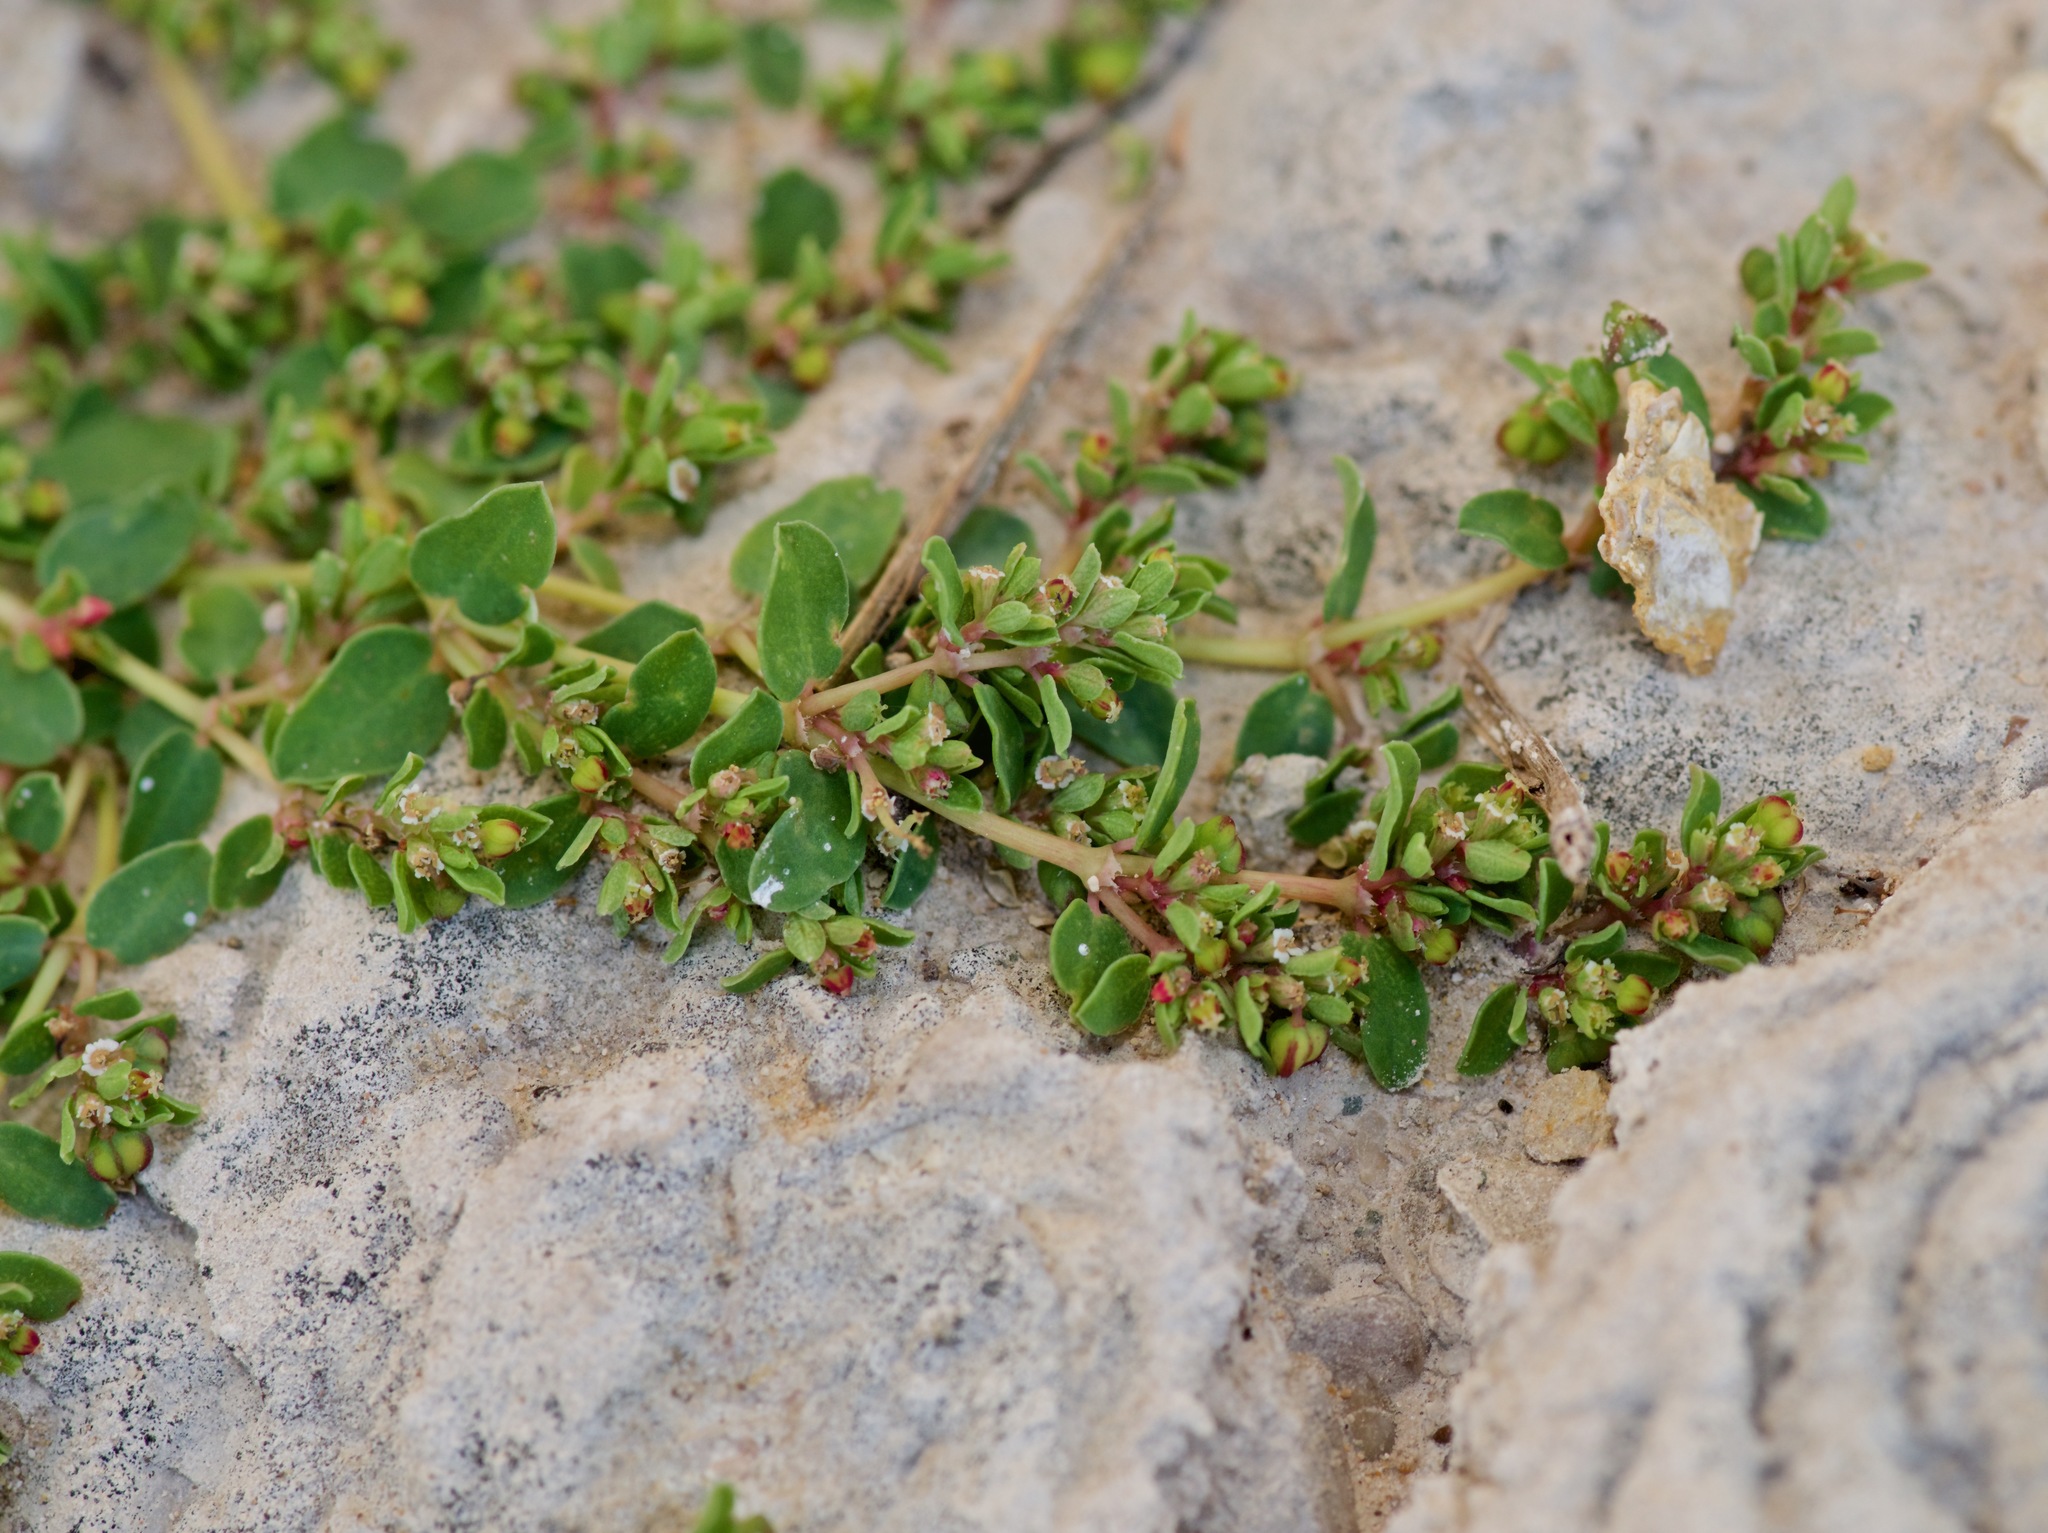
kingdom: Plantae
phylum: Tracheophyta
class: Magnoliopsida
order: Malpighiales
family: Euphorbiaceae
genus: Euphorbia
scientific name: Euphorbia serpens
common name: Matted sandmat
